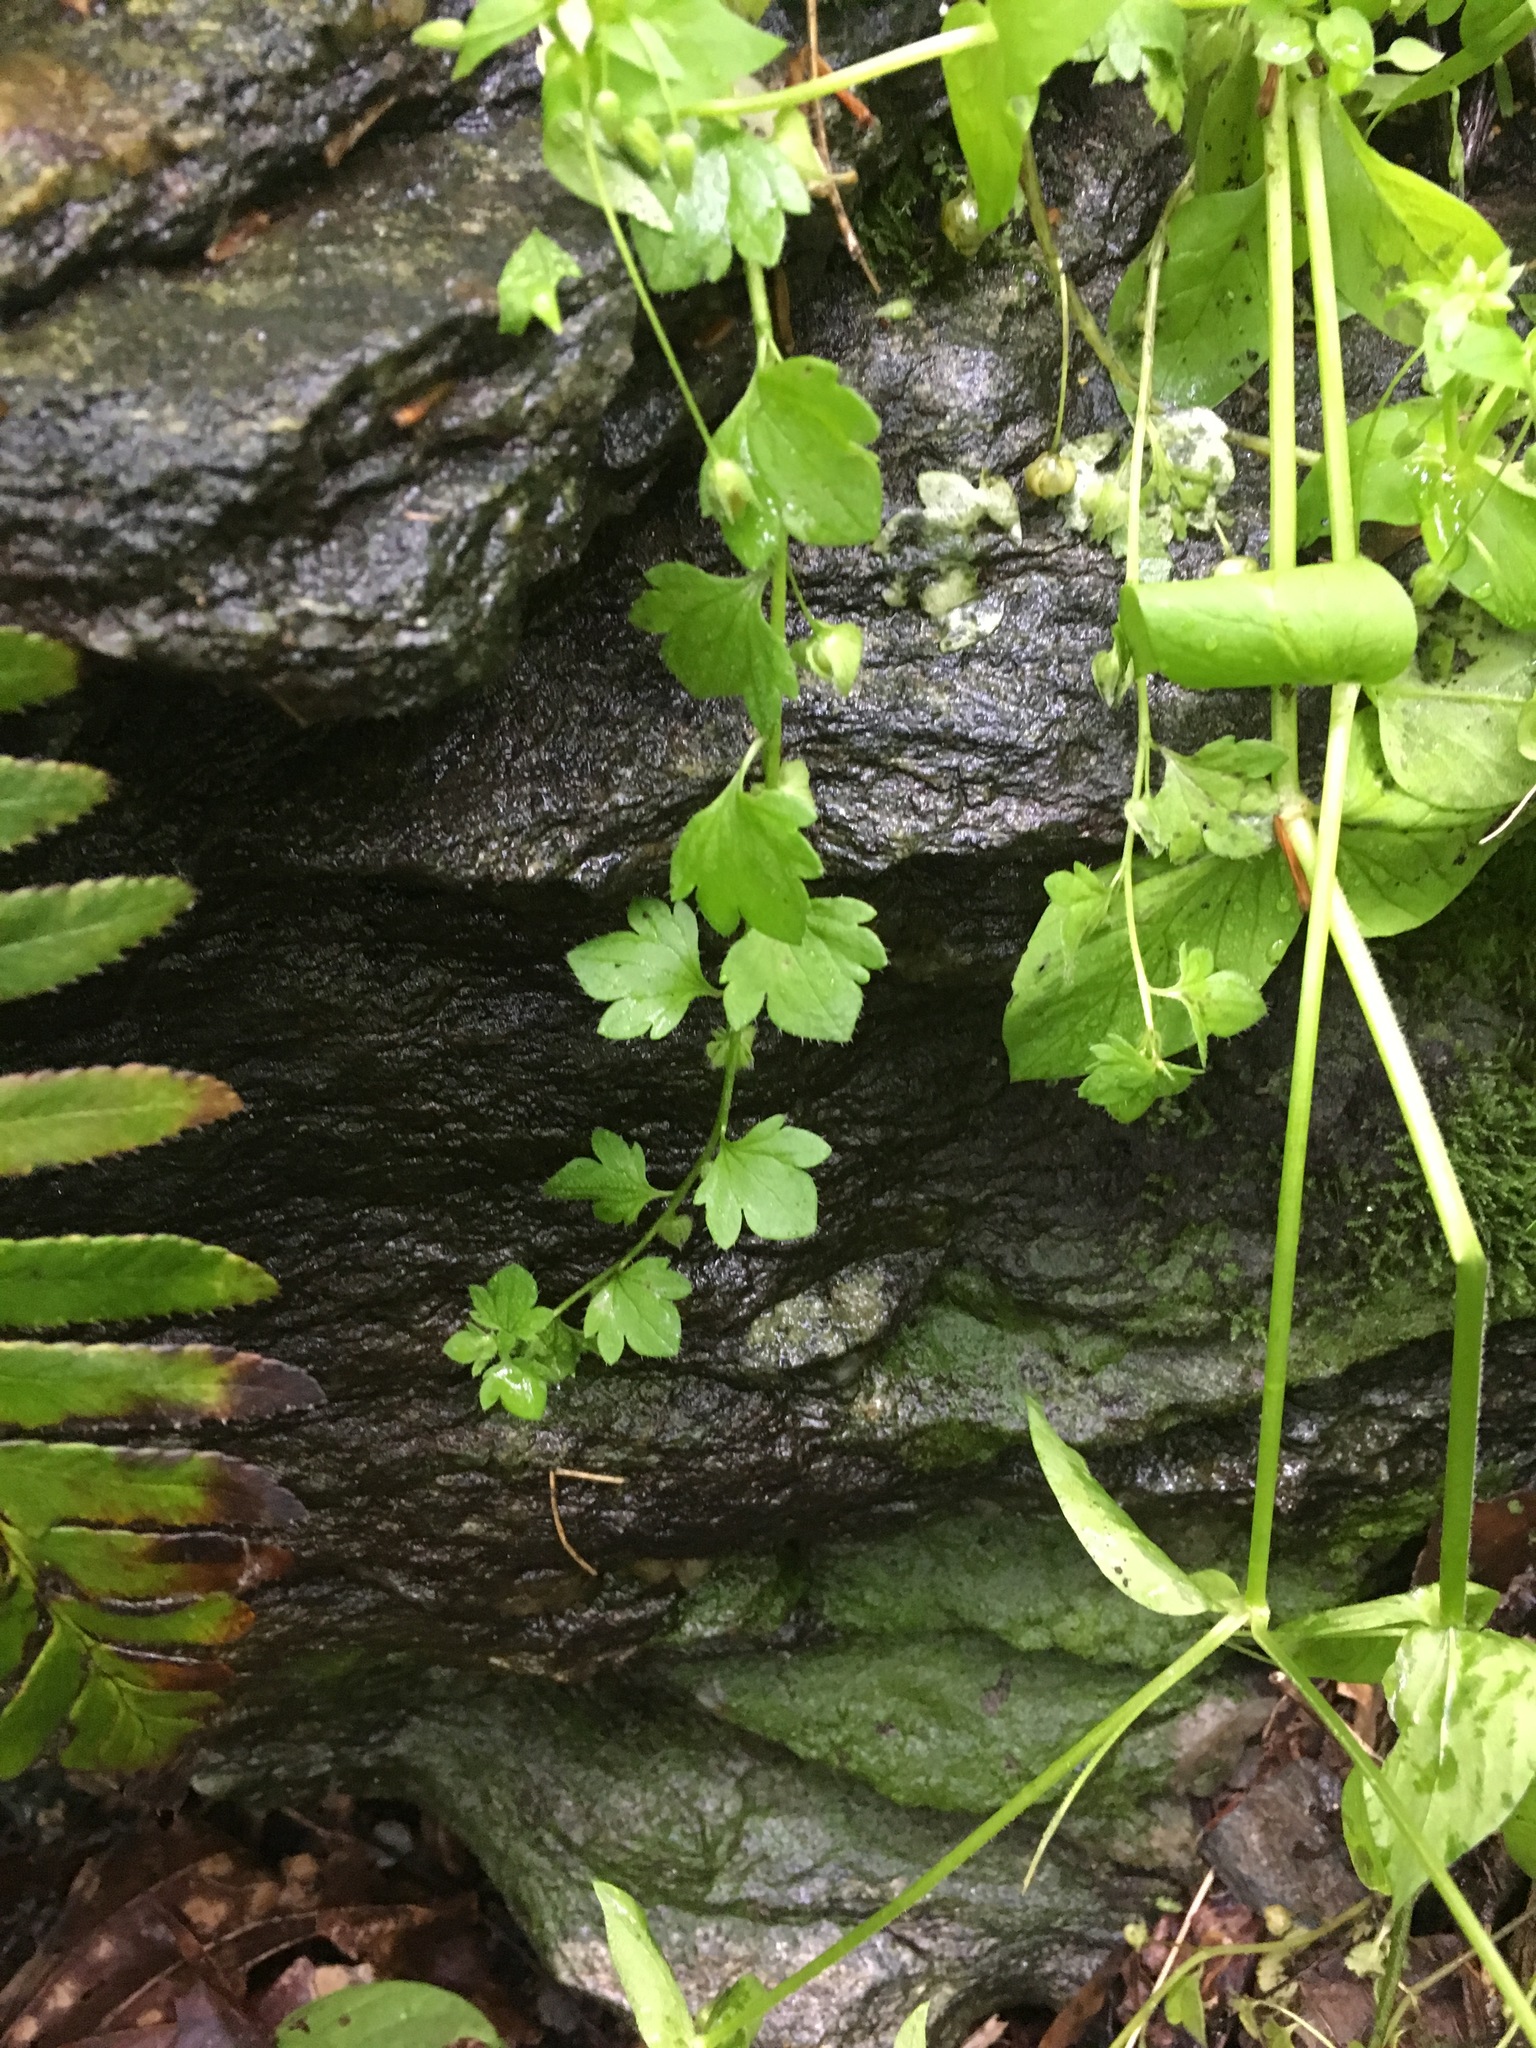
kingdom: Plantae
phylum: Tracheophyta
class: Magnoliopsida
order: Lamiales
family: Plantaginaceae
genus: Veronica
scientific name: Veronica hederifolia
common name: Ivy-leaved speedwell
